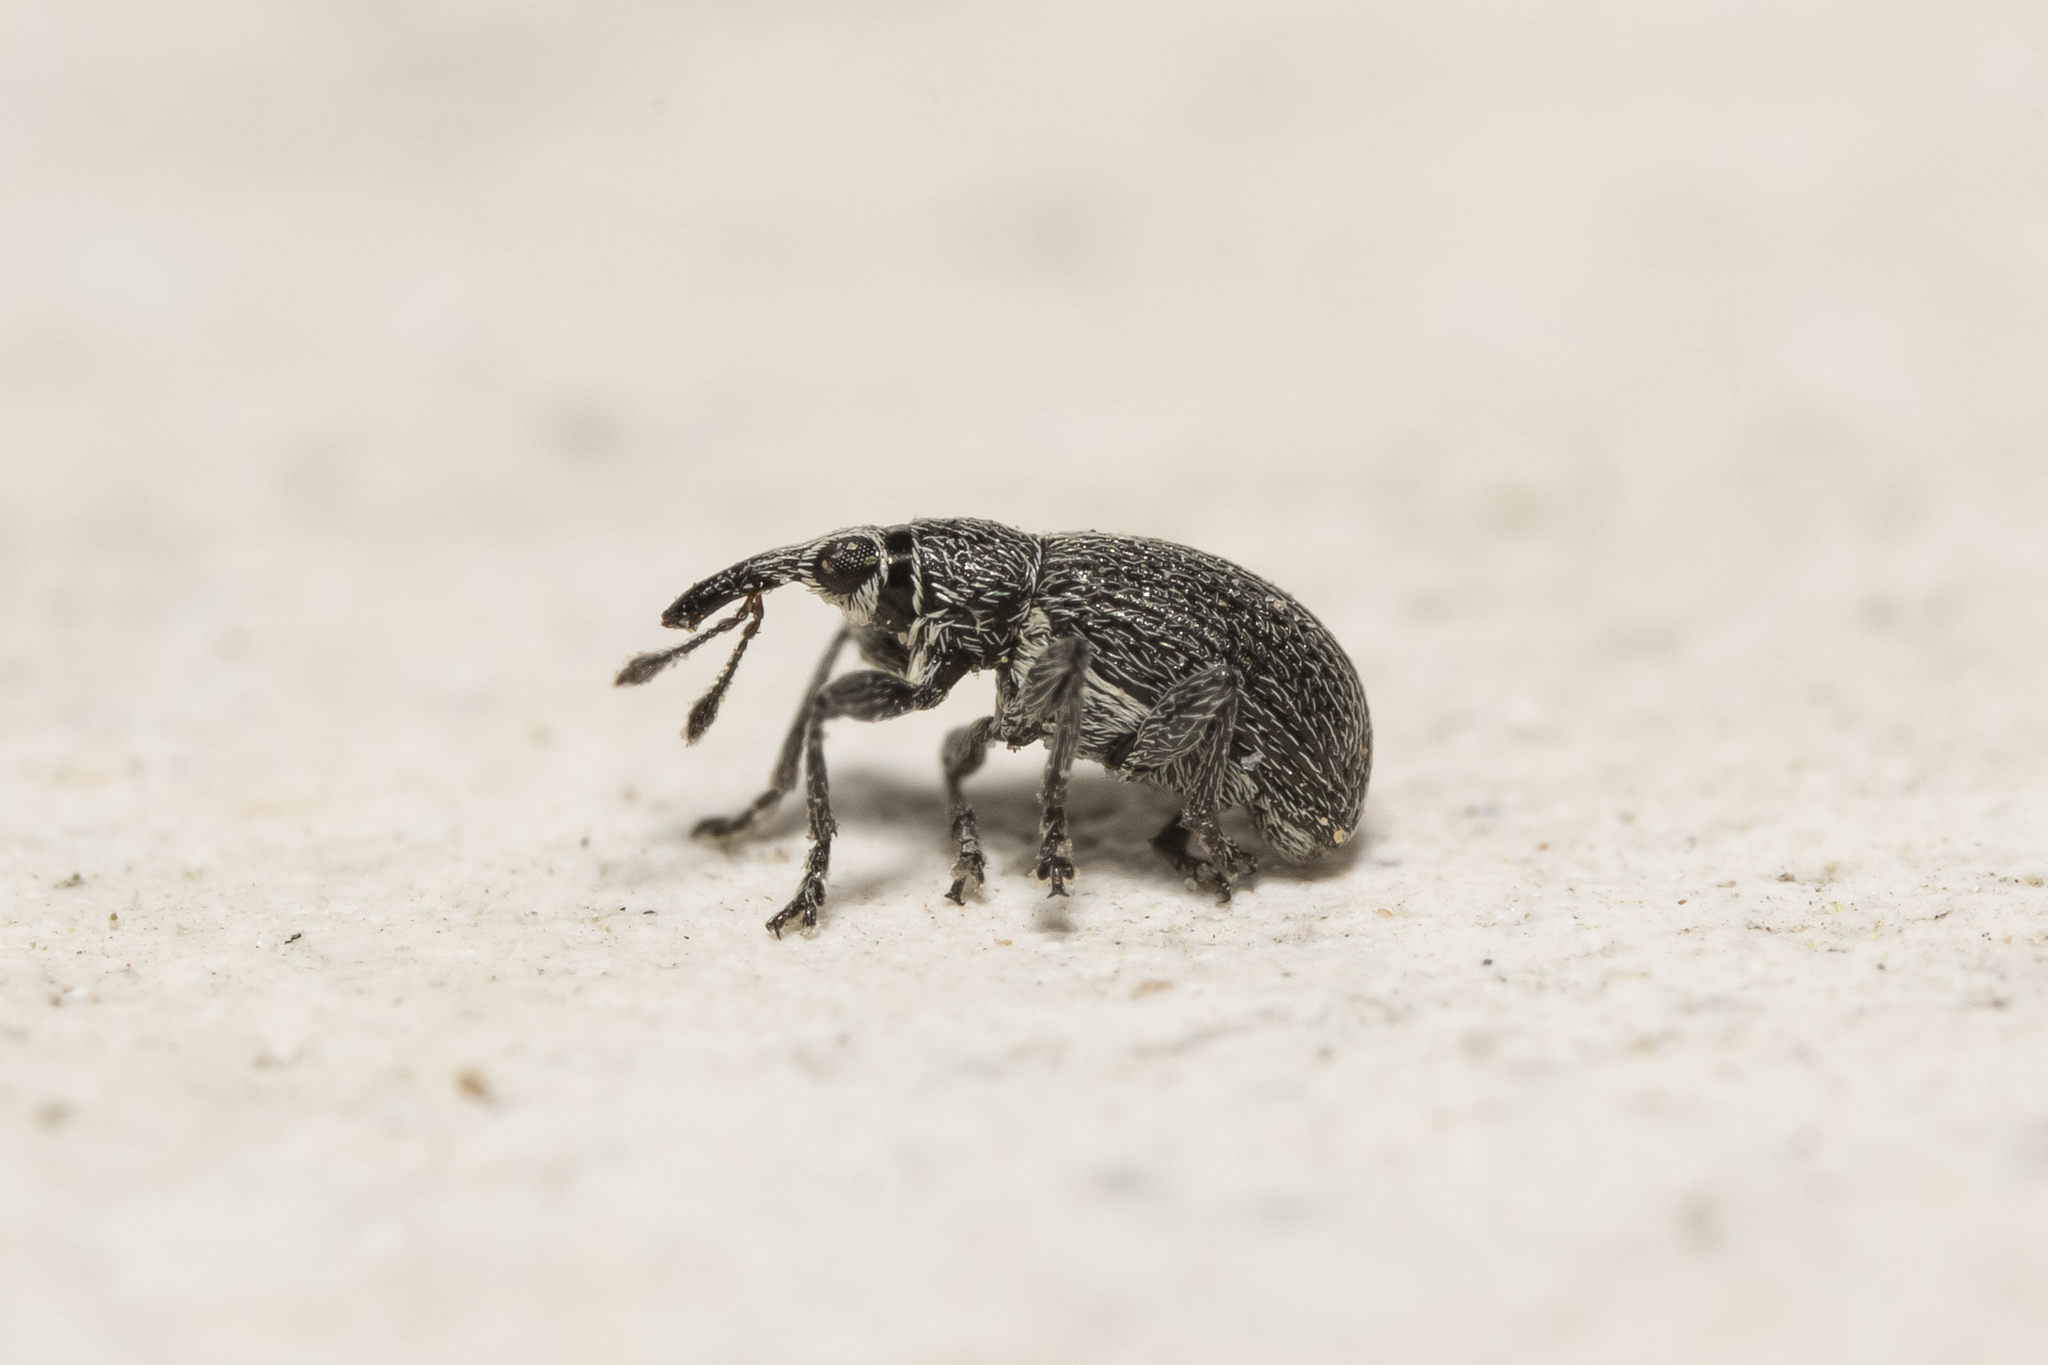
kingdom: Animalia
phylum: Arthropoda
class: Insecta
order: Coleoptera
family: Brentidae
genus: Betulapion
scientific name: Betulapion simile
